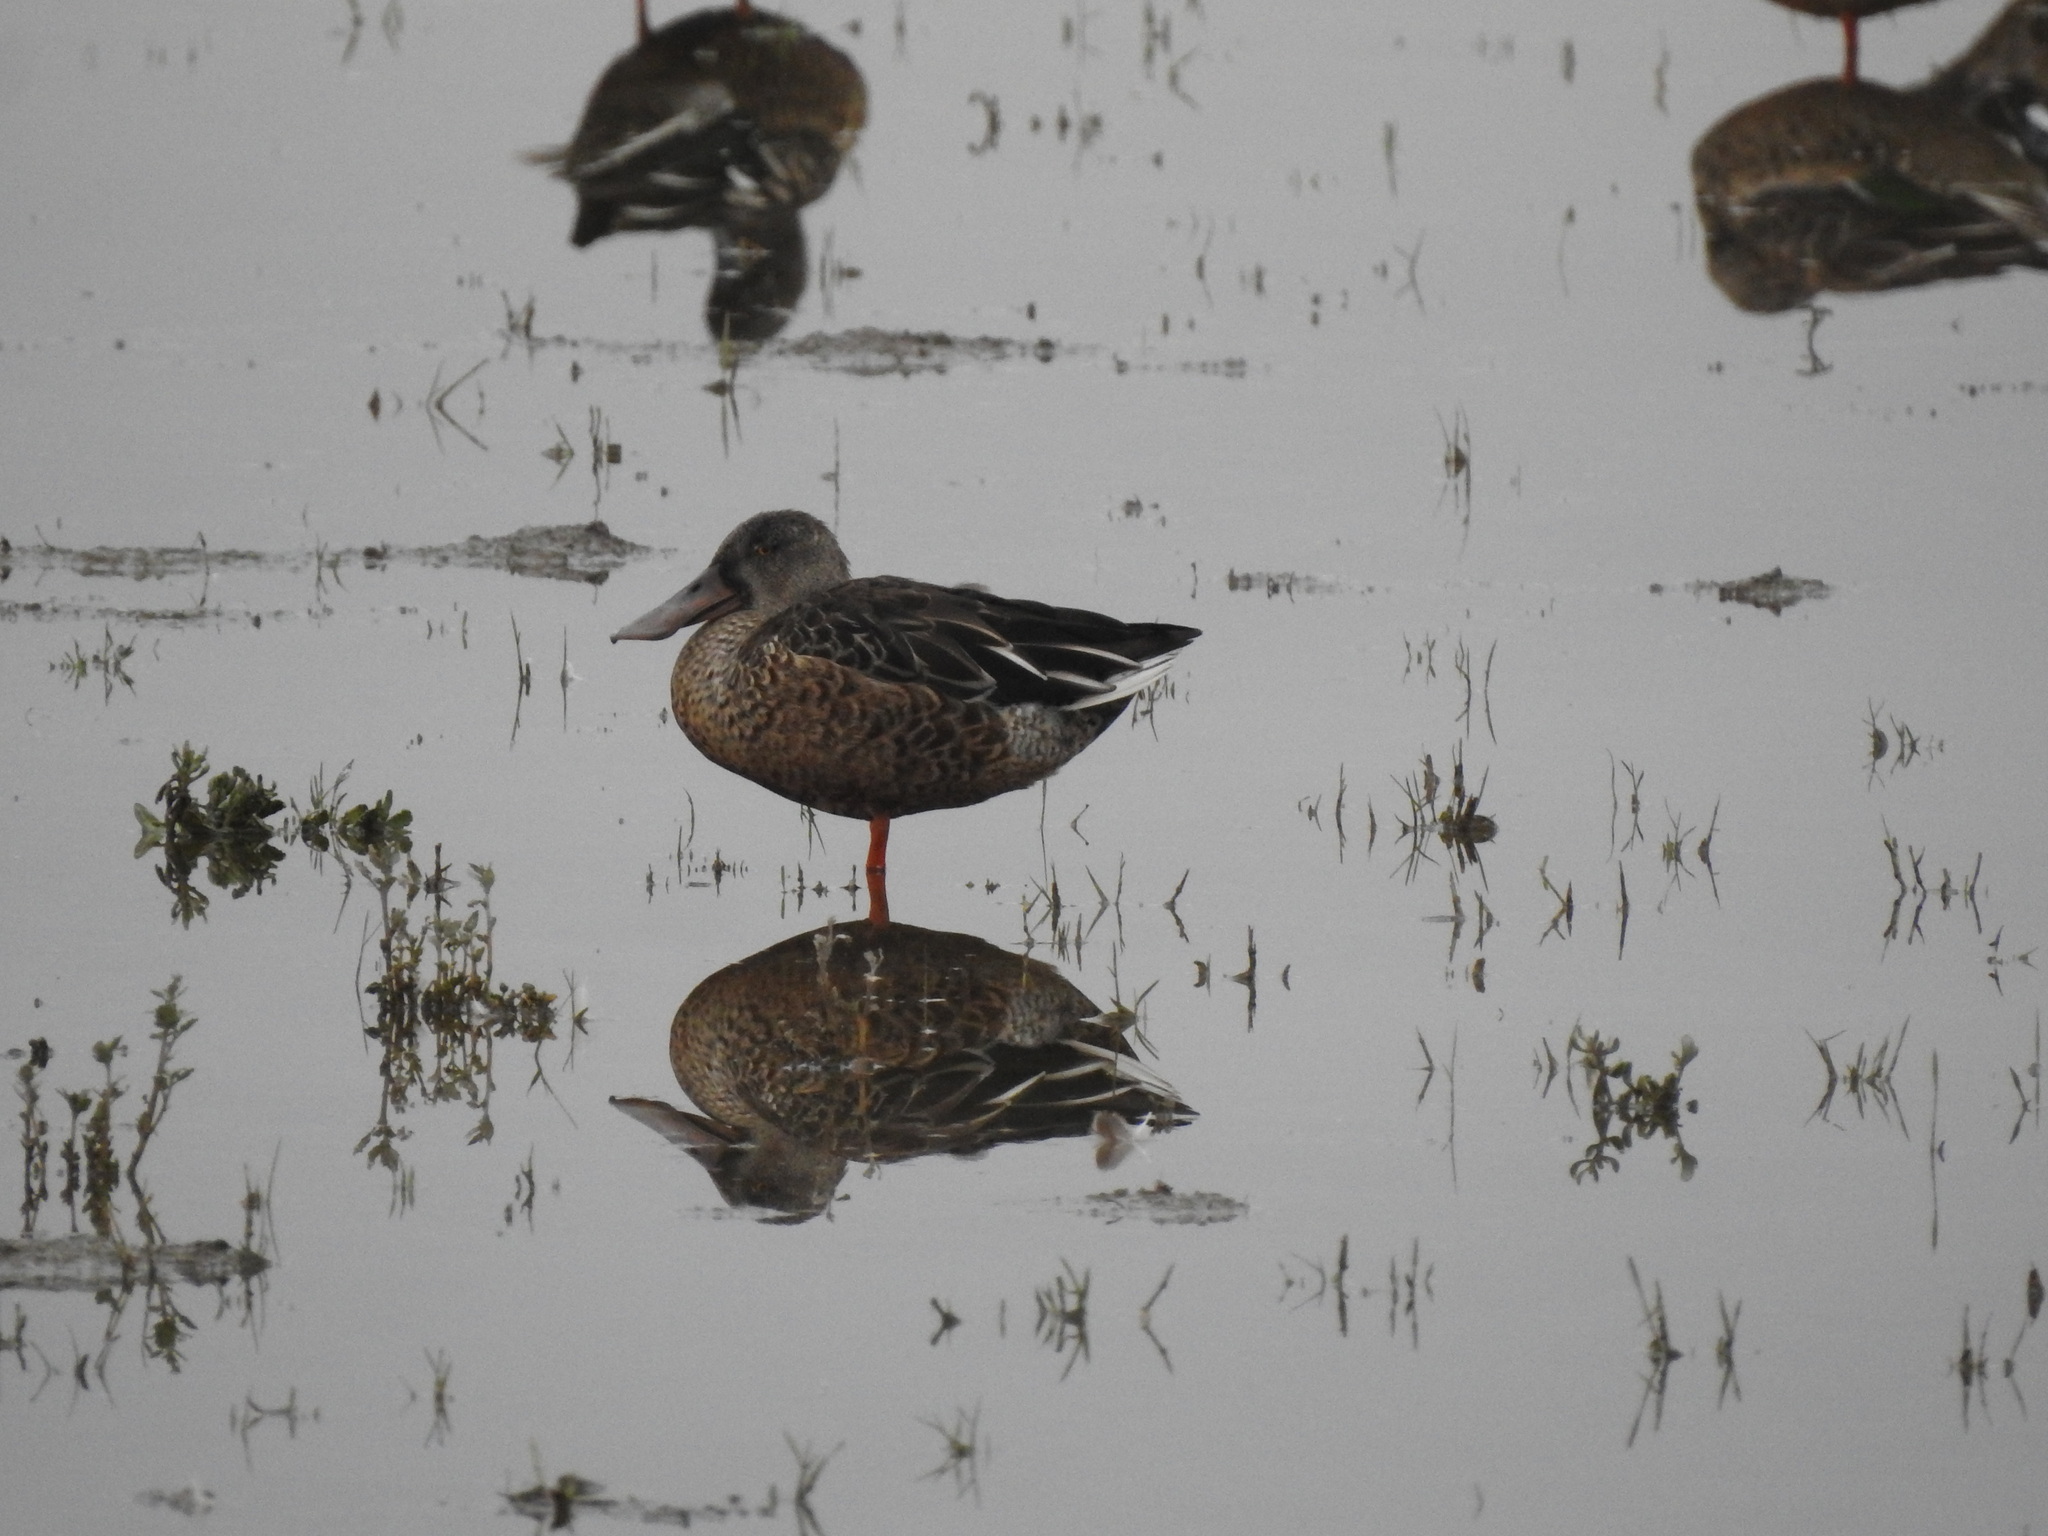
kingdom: Animalia
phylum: Chordata
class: Aves
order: Anseriformes
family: Anatidae
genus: Spatula
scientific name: Spatula clypeata
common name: Northern shoveler
